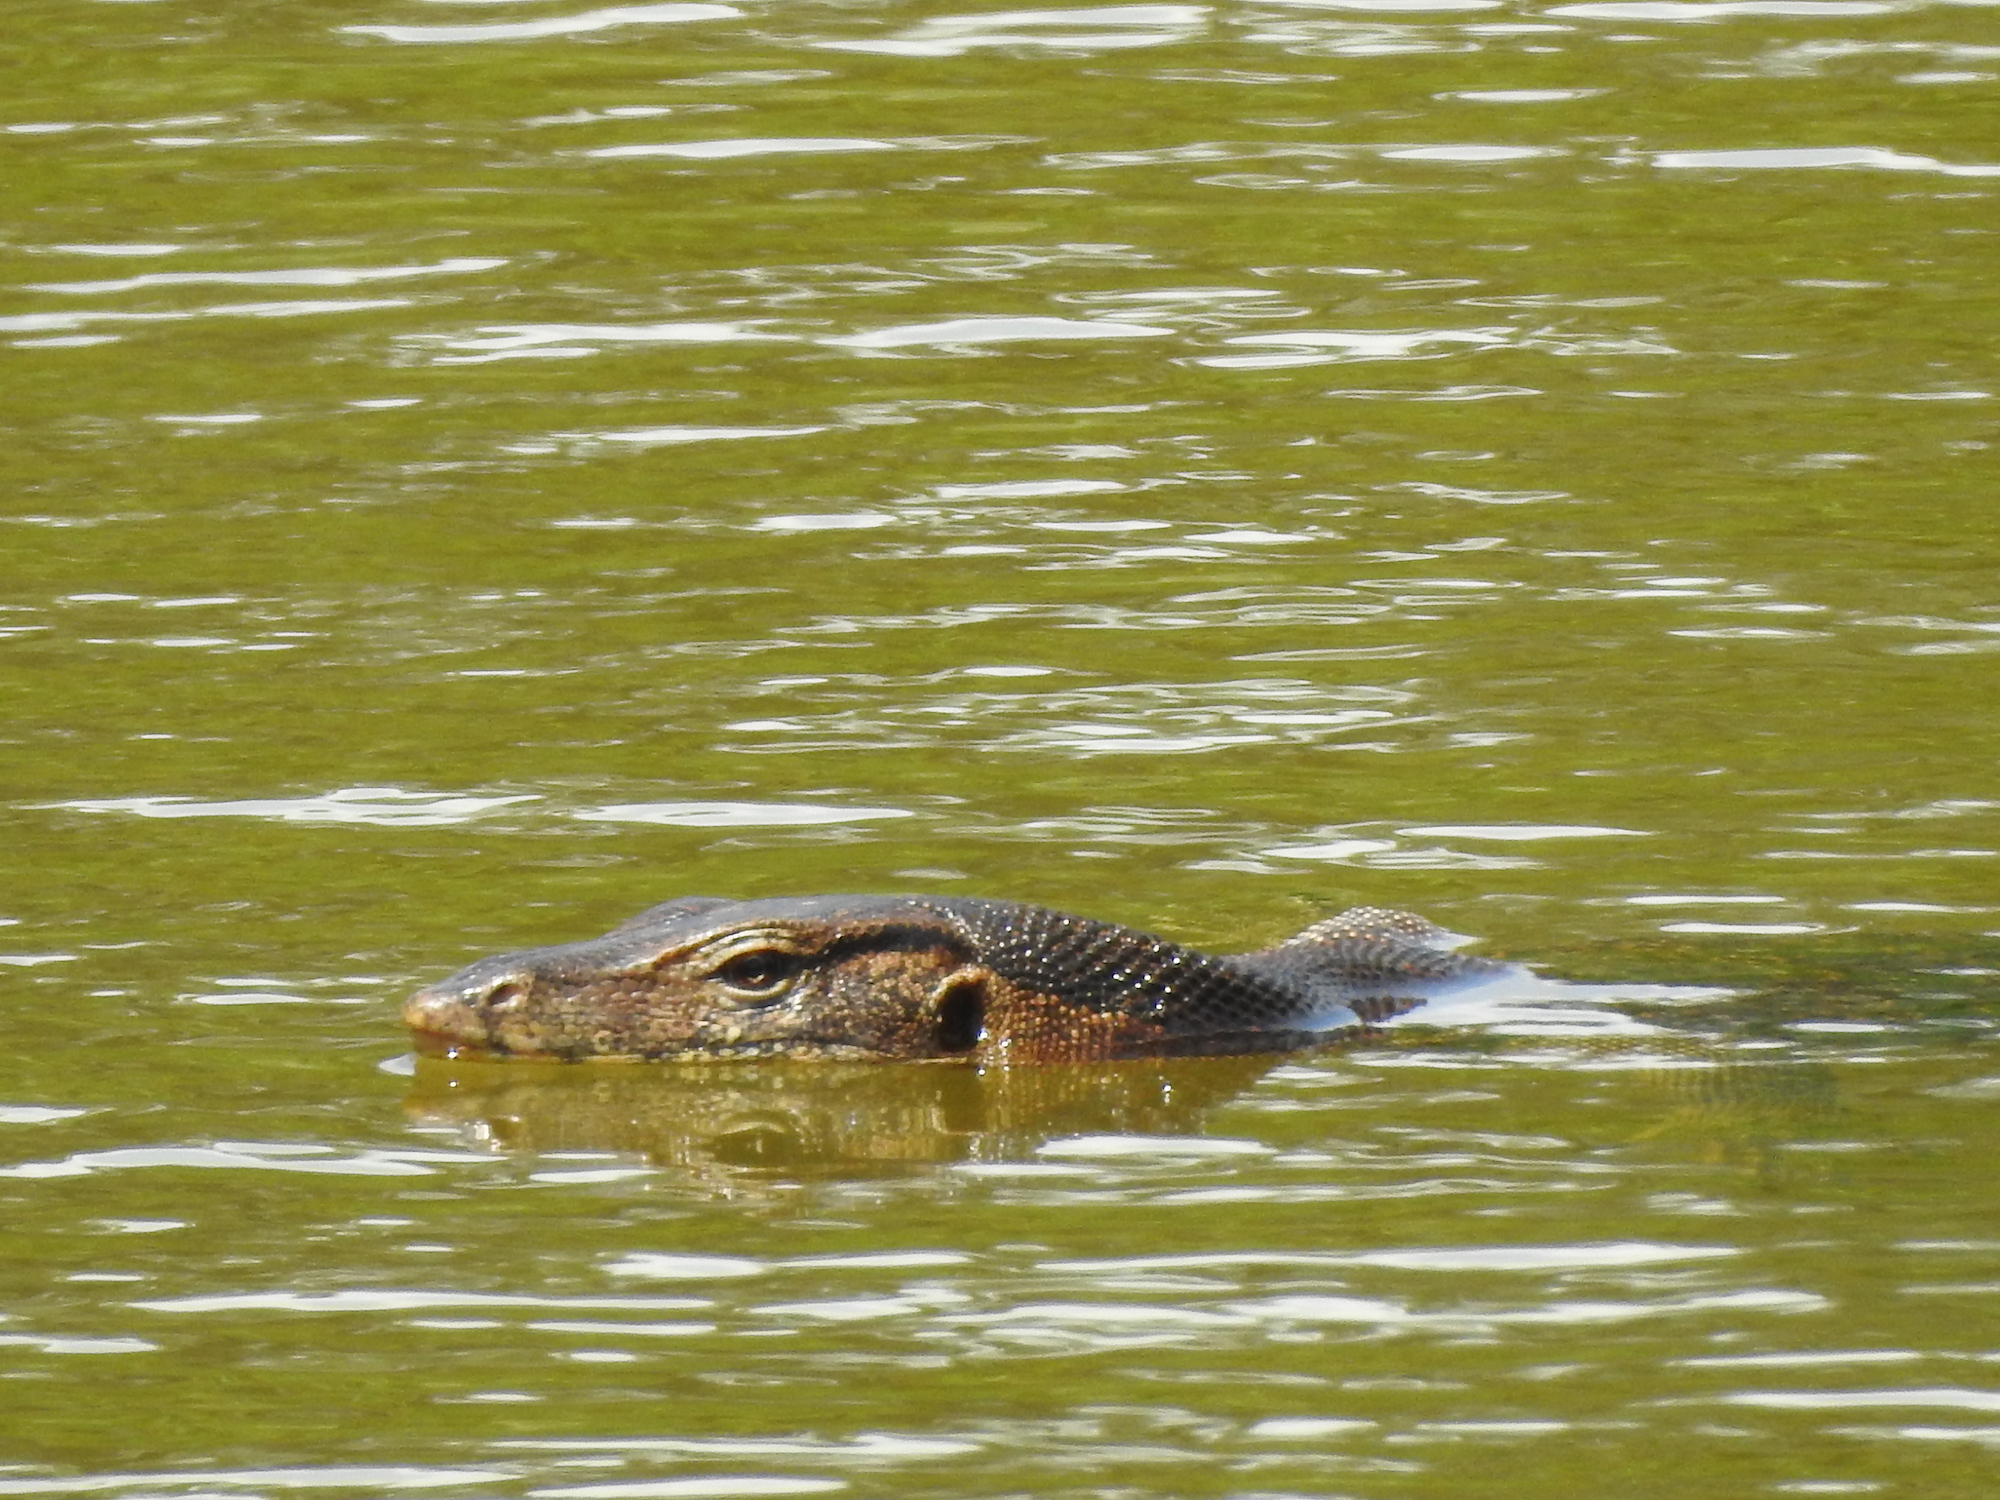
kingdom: Animalia
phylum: Chordata
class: Squamata
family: Varanidae
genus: Varanus
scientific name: Varanus salvator
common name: Common water monitor
